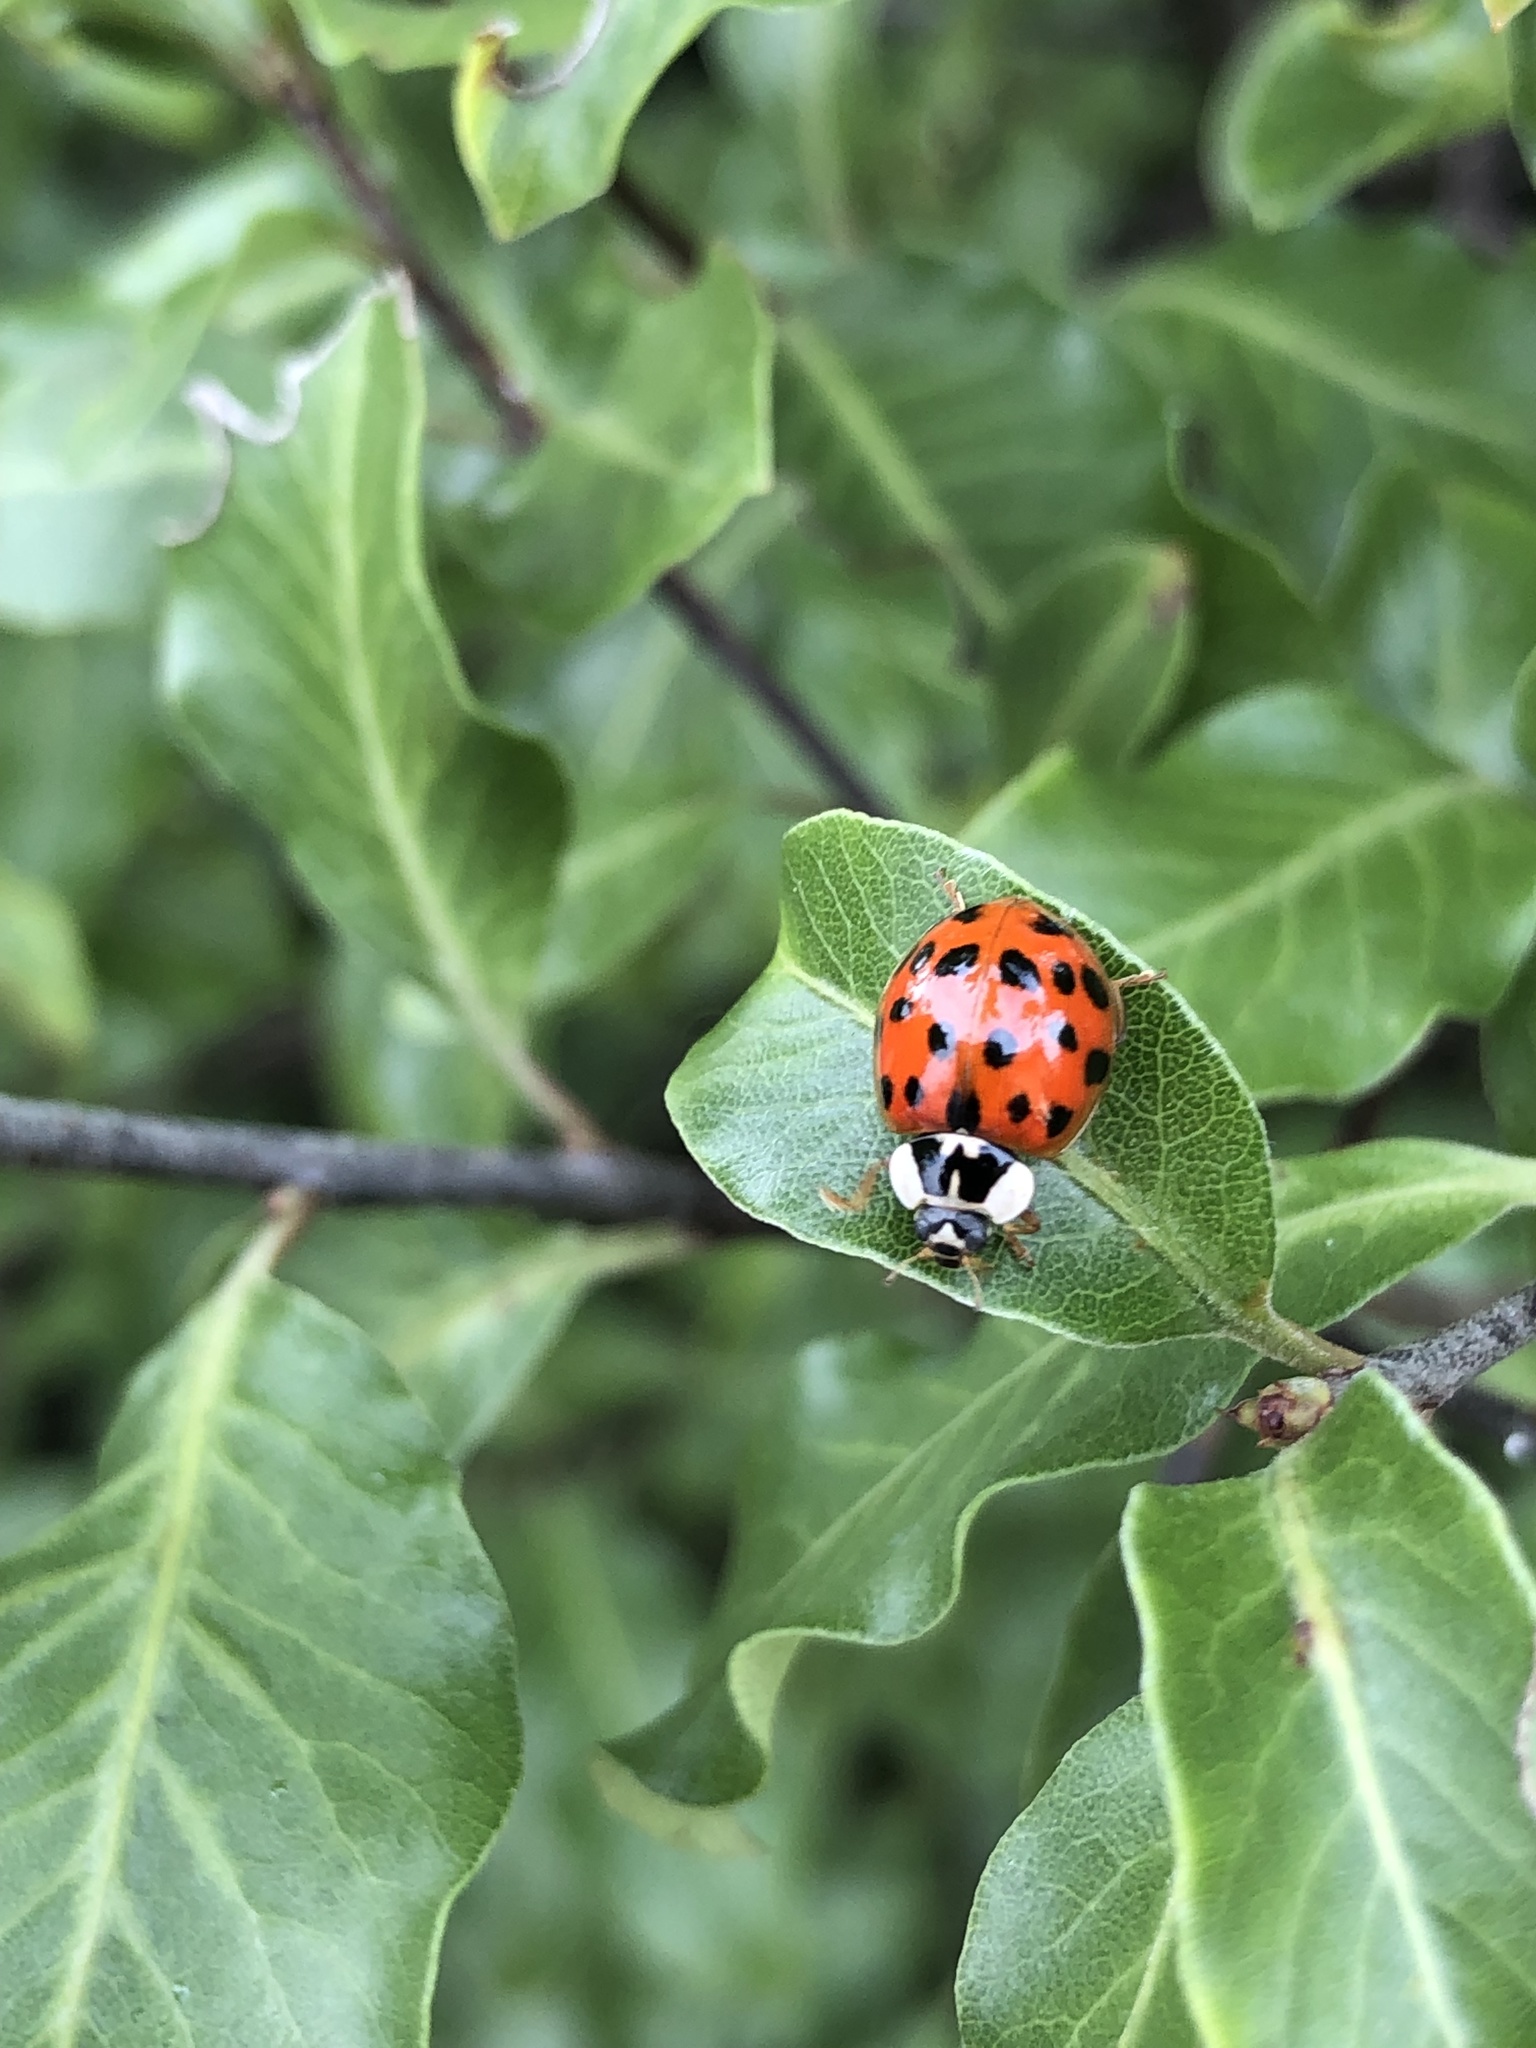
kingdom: Animalia
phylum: Arthropoda
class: Insecta
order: Coleoptera
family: Coccinellidae
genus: Harmonia
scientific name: Harmonia axyridis
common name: Harlequin ladybird
